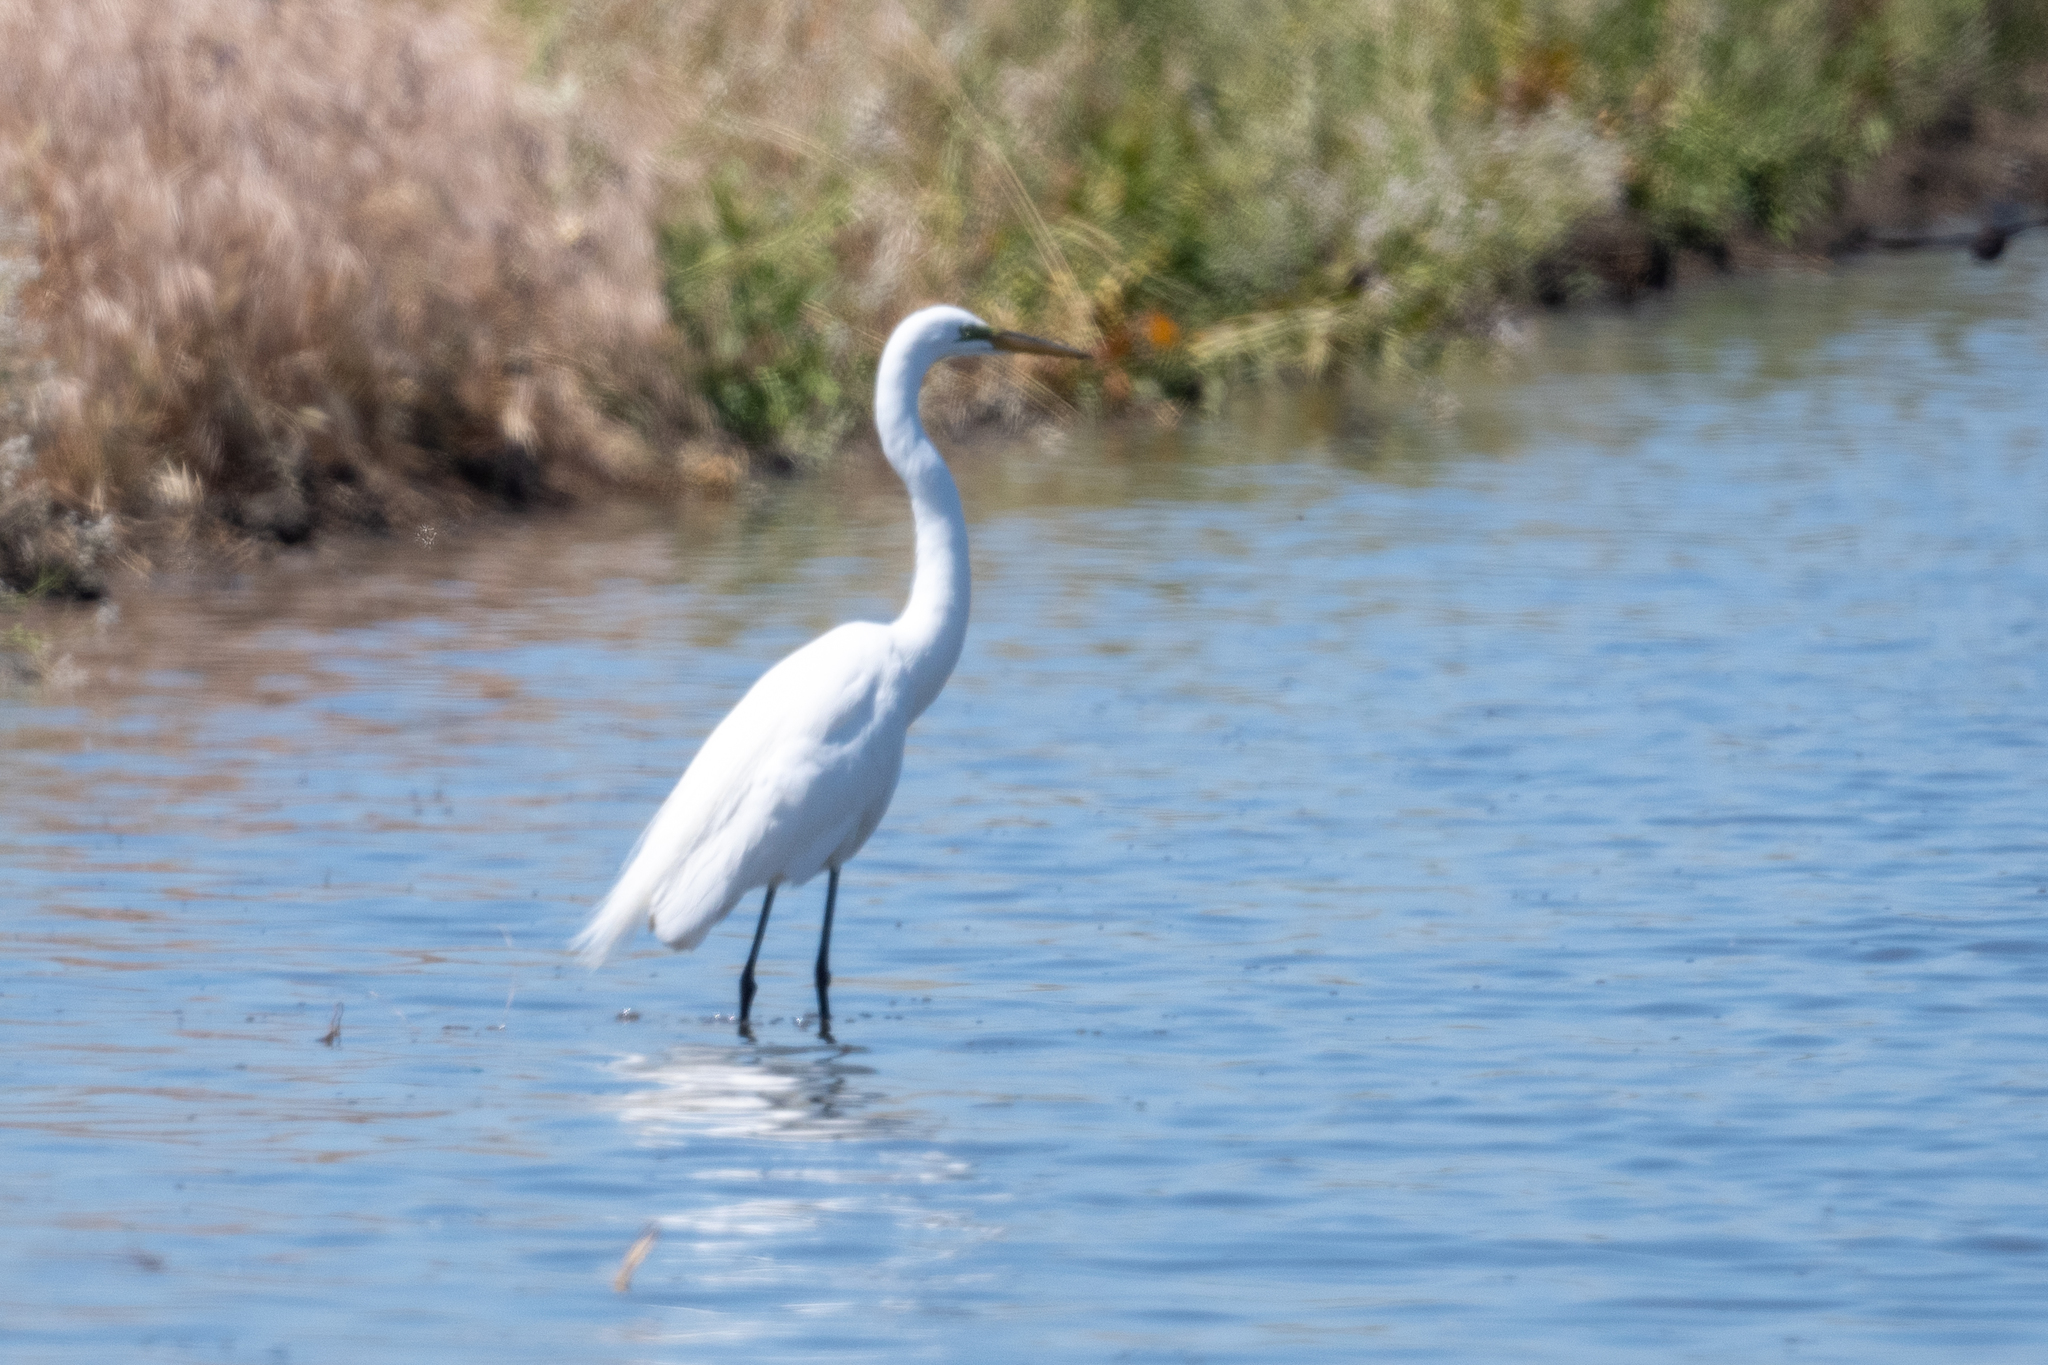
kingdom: Animalia
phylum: Chordata
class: Aves
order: Pelecaniformes
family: Ardeidae
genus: Ardea
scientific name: Ardea alba
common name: Great egret
